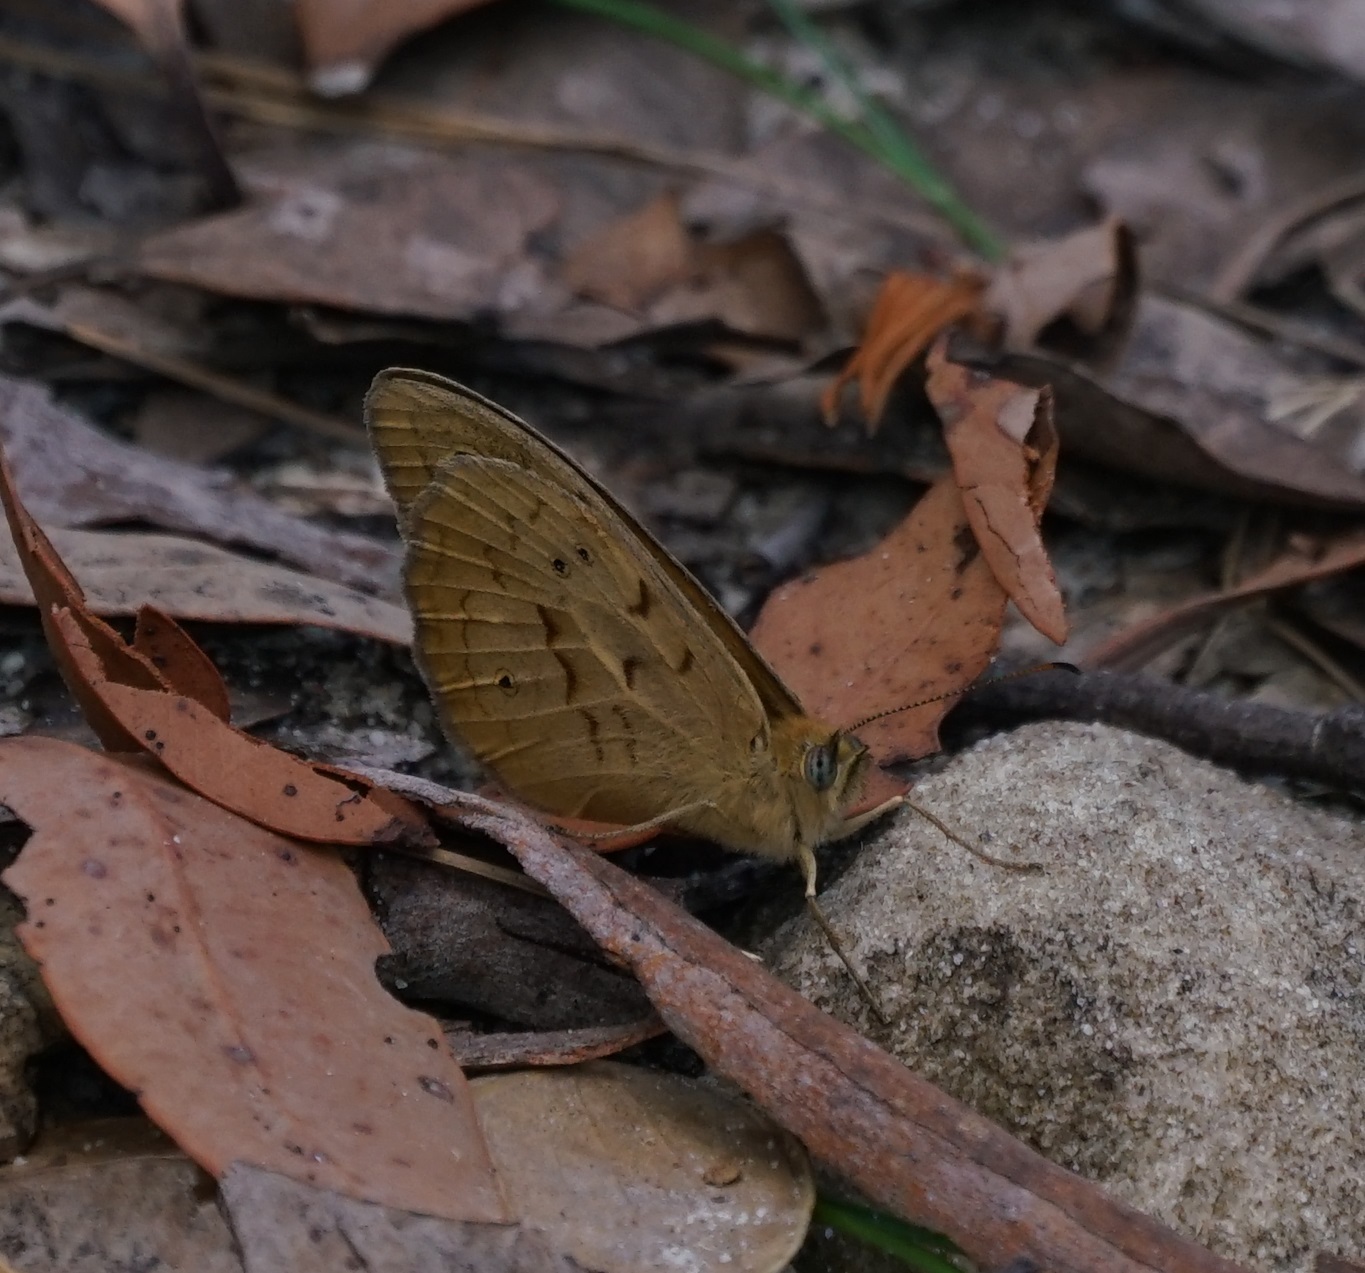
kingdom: Animalia
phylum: Arthropoda
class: Insecta
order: Lepidoptera
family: Nymphalidae
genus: Heteronympha
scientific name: Heteronympha merope
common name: Common brown
